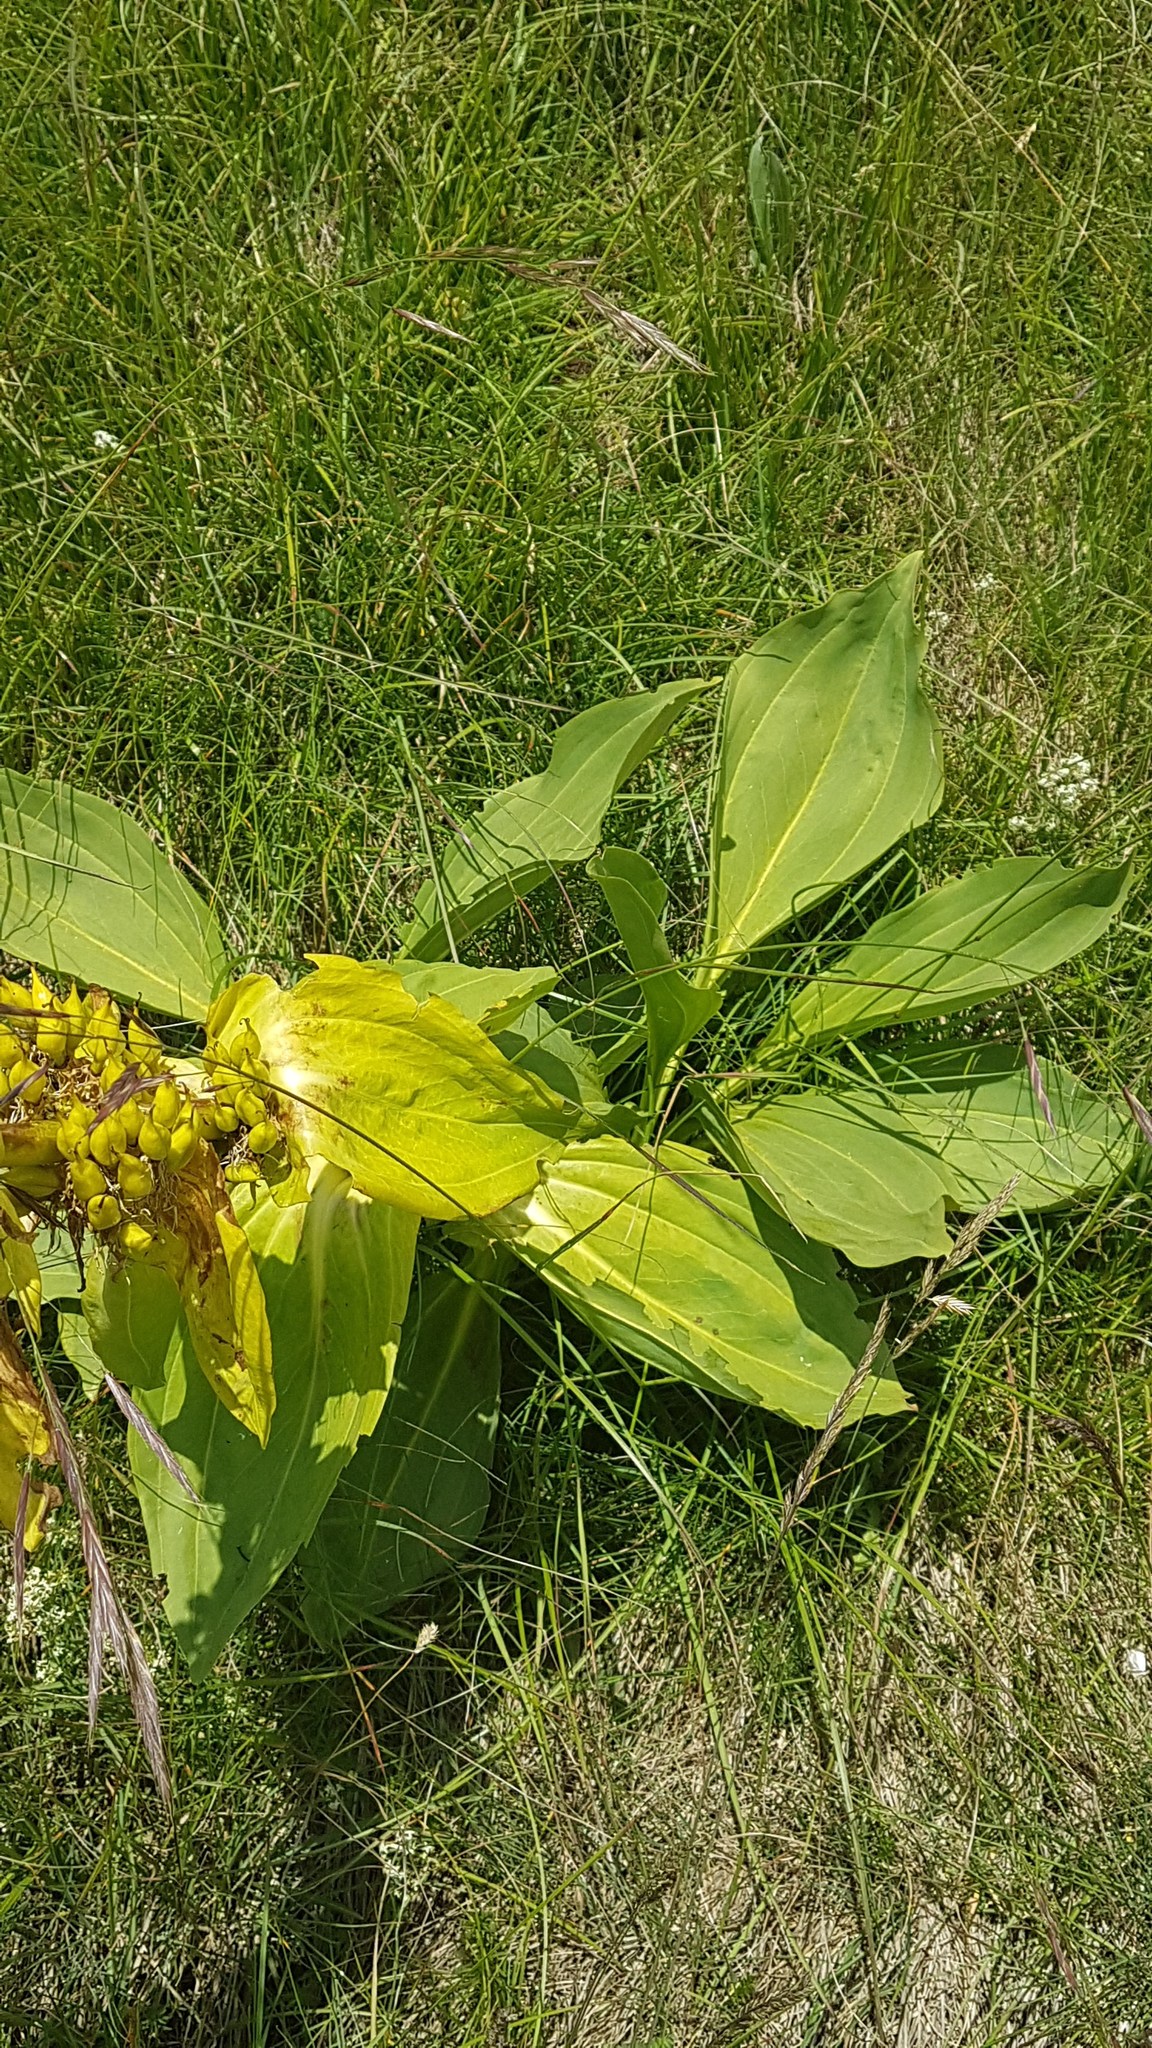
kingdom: Plantae
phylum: Tracheophyta
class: Magnoliopsida
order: Gentianales
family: Gentianaceae
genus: Gentiana
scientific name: Gentiana lutea
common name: Great yellow gentian
